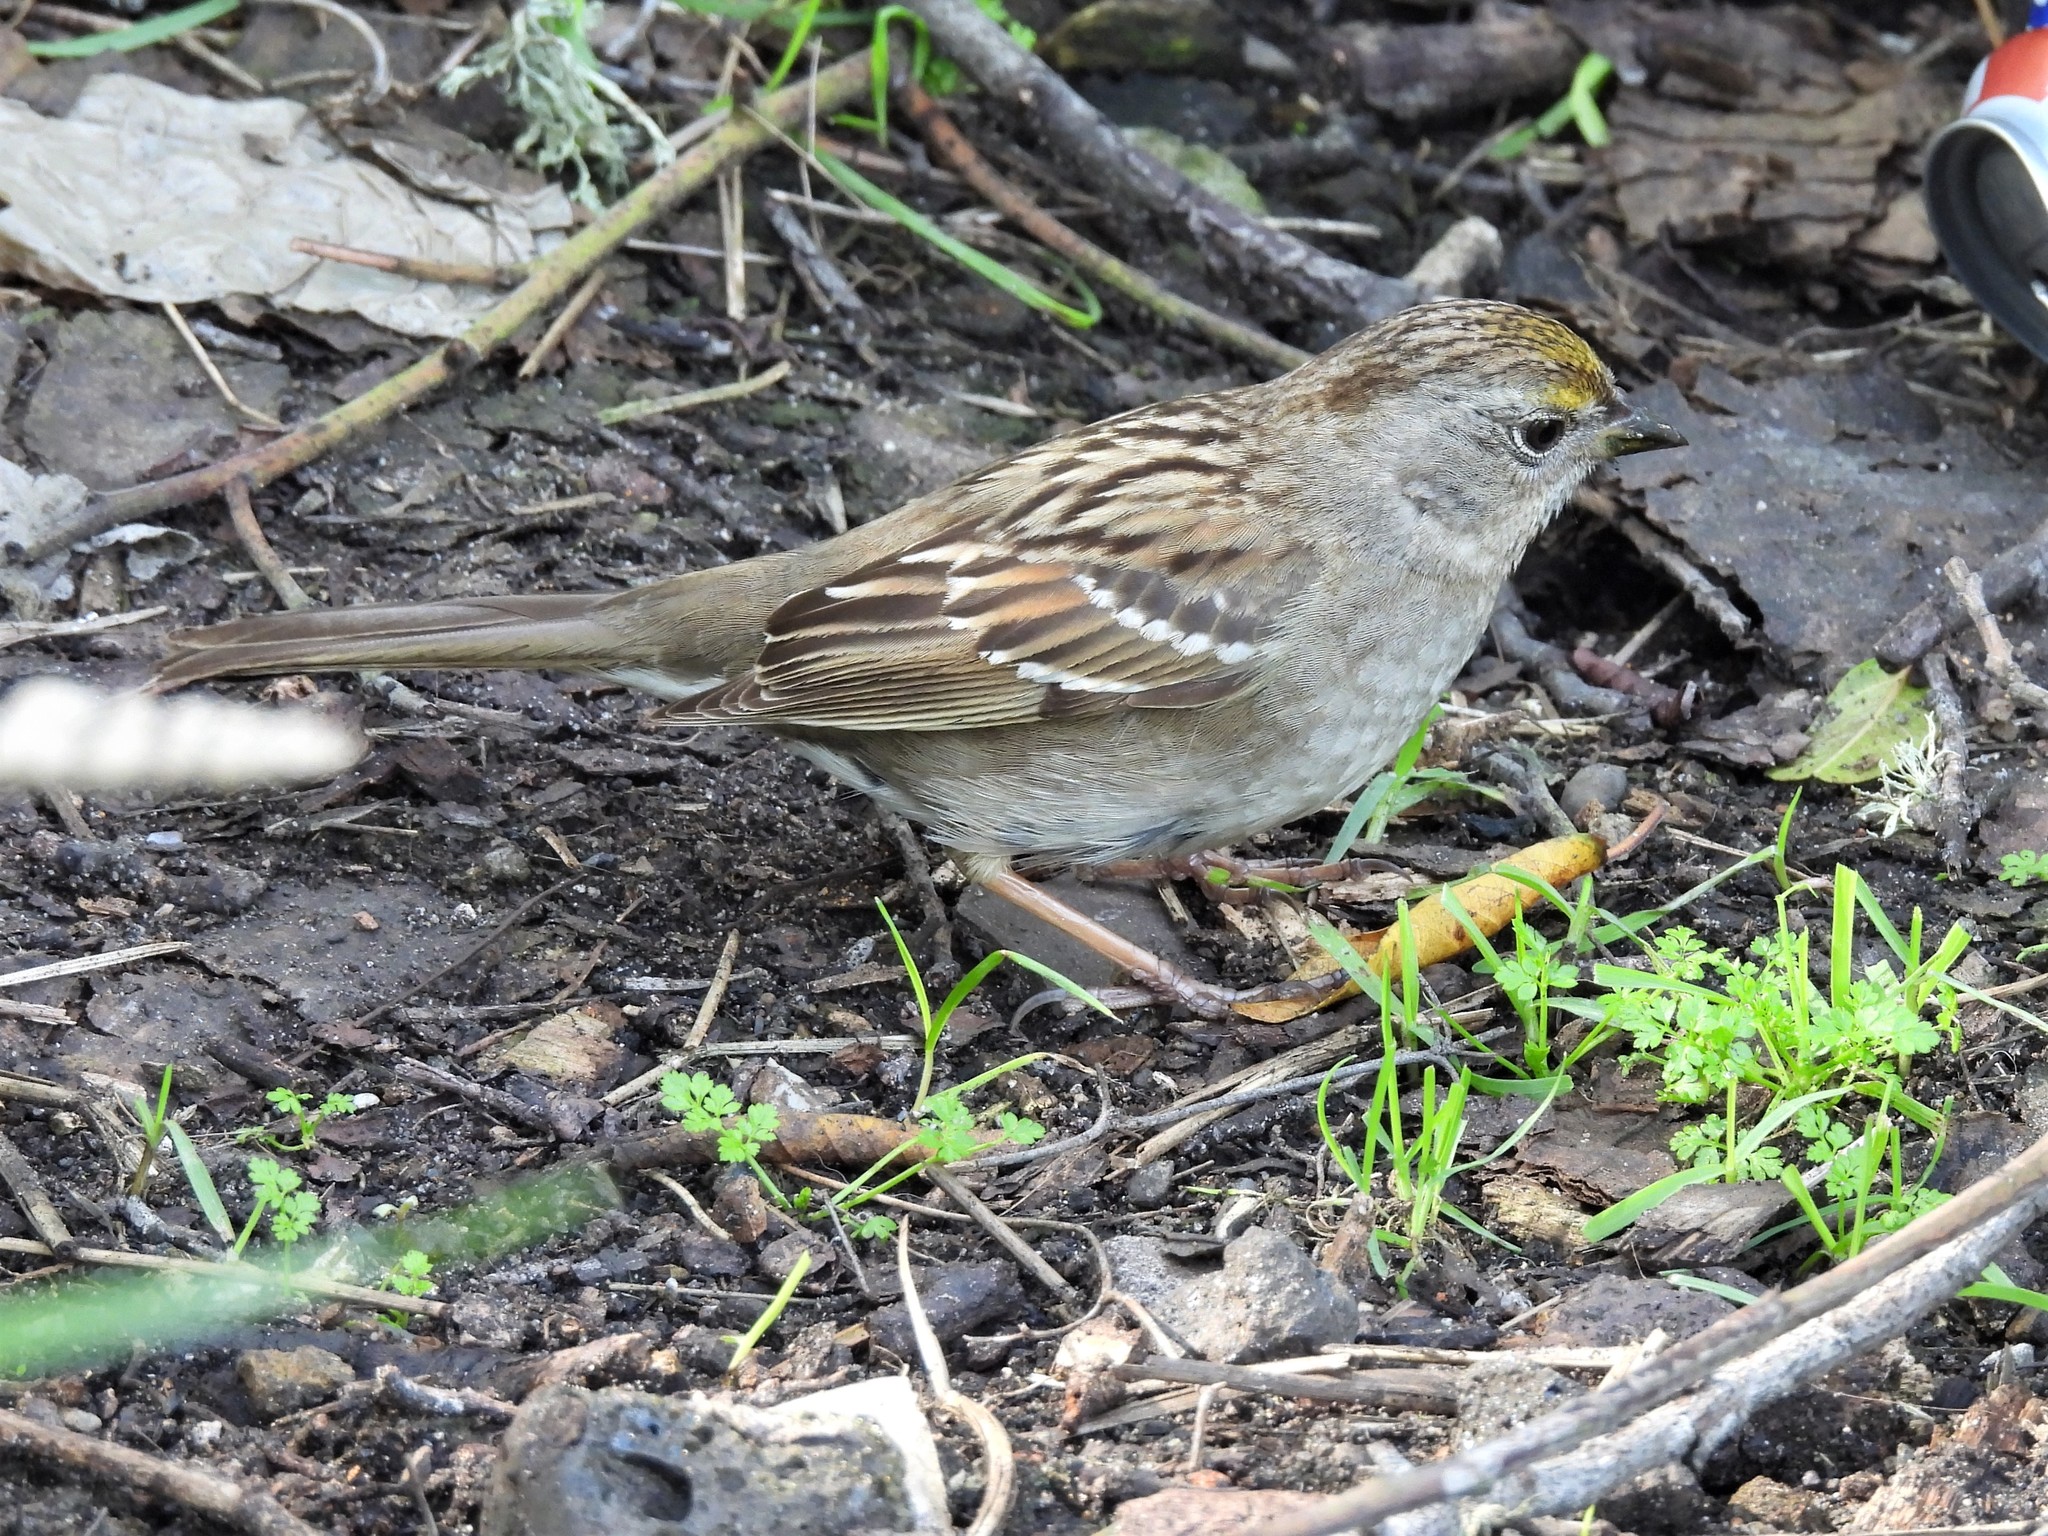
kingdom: Animalia
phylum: Chordata
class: Aves
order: Passeriformes
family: Passerellidae
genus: Zonotrichia
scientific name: Zonotrichia atricapilla
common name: Golden-crowned sparrow
